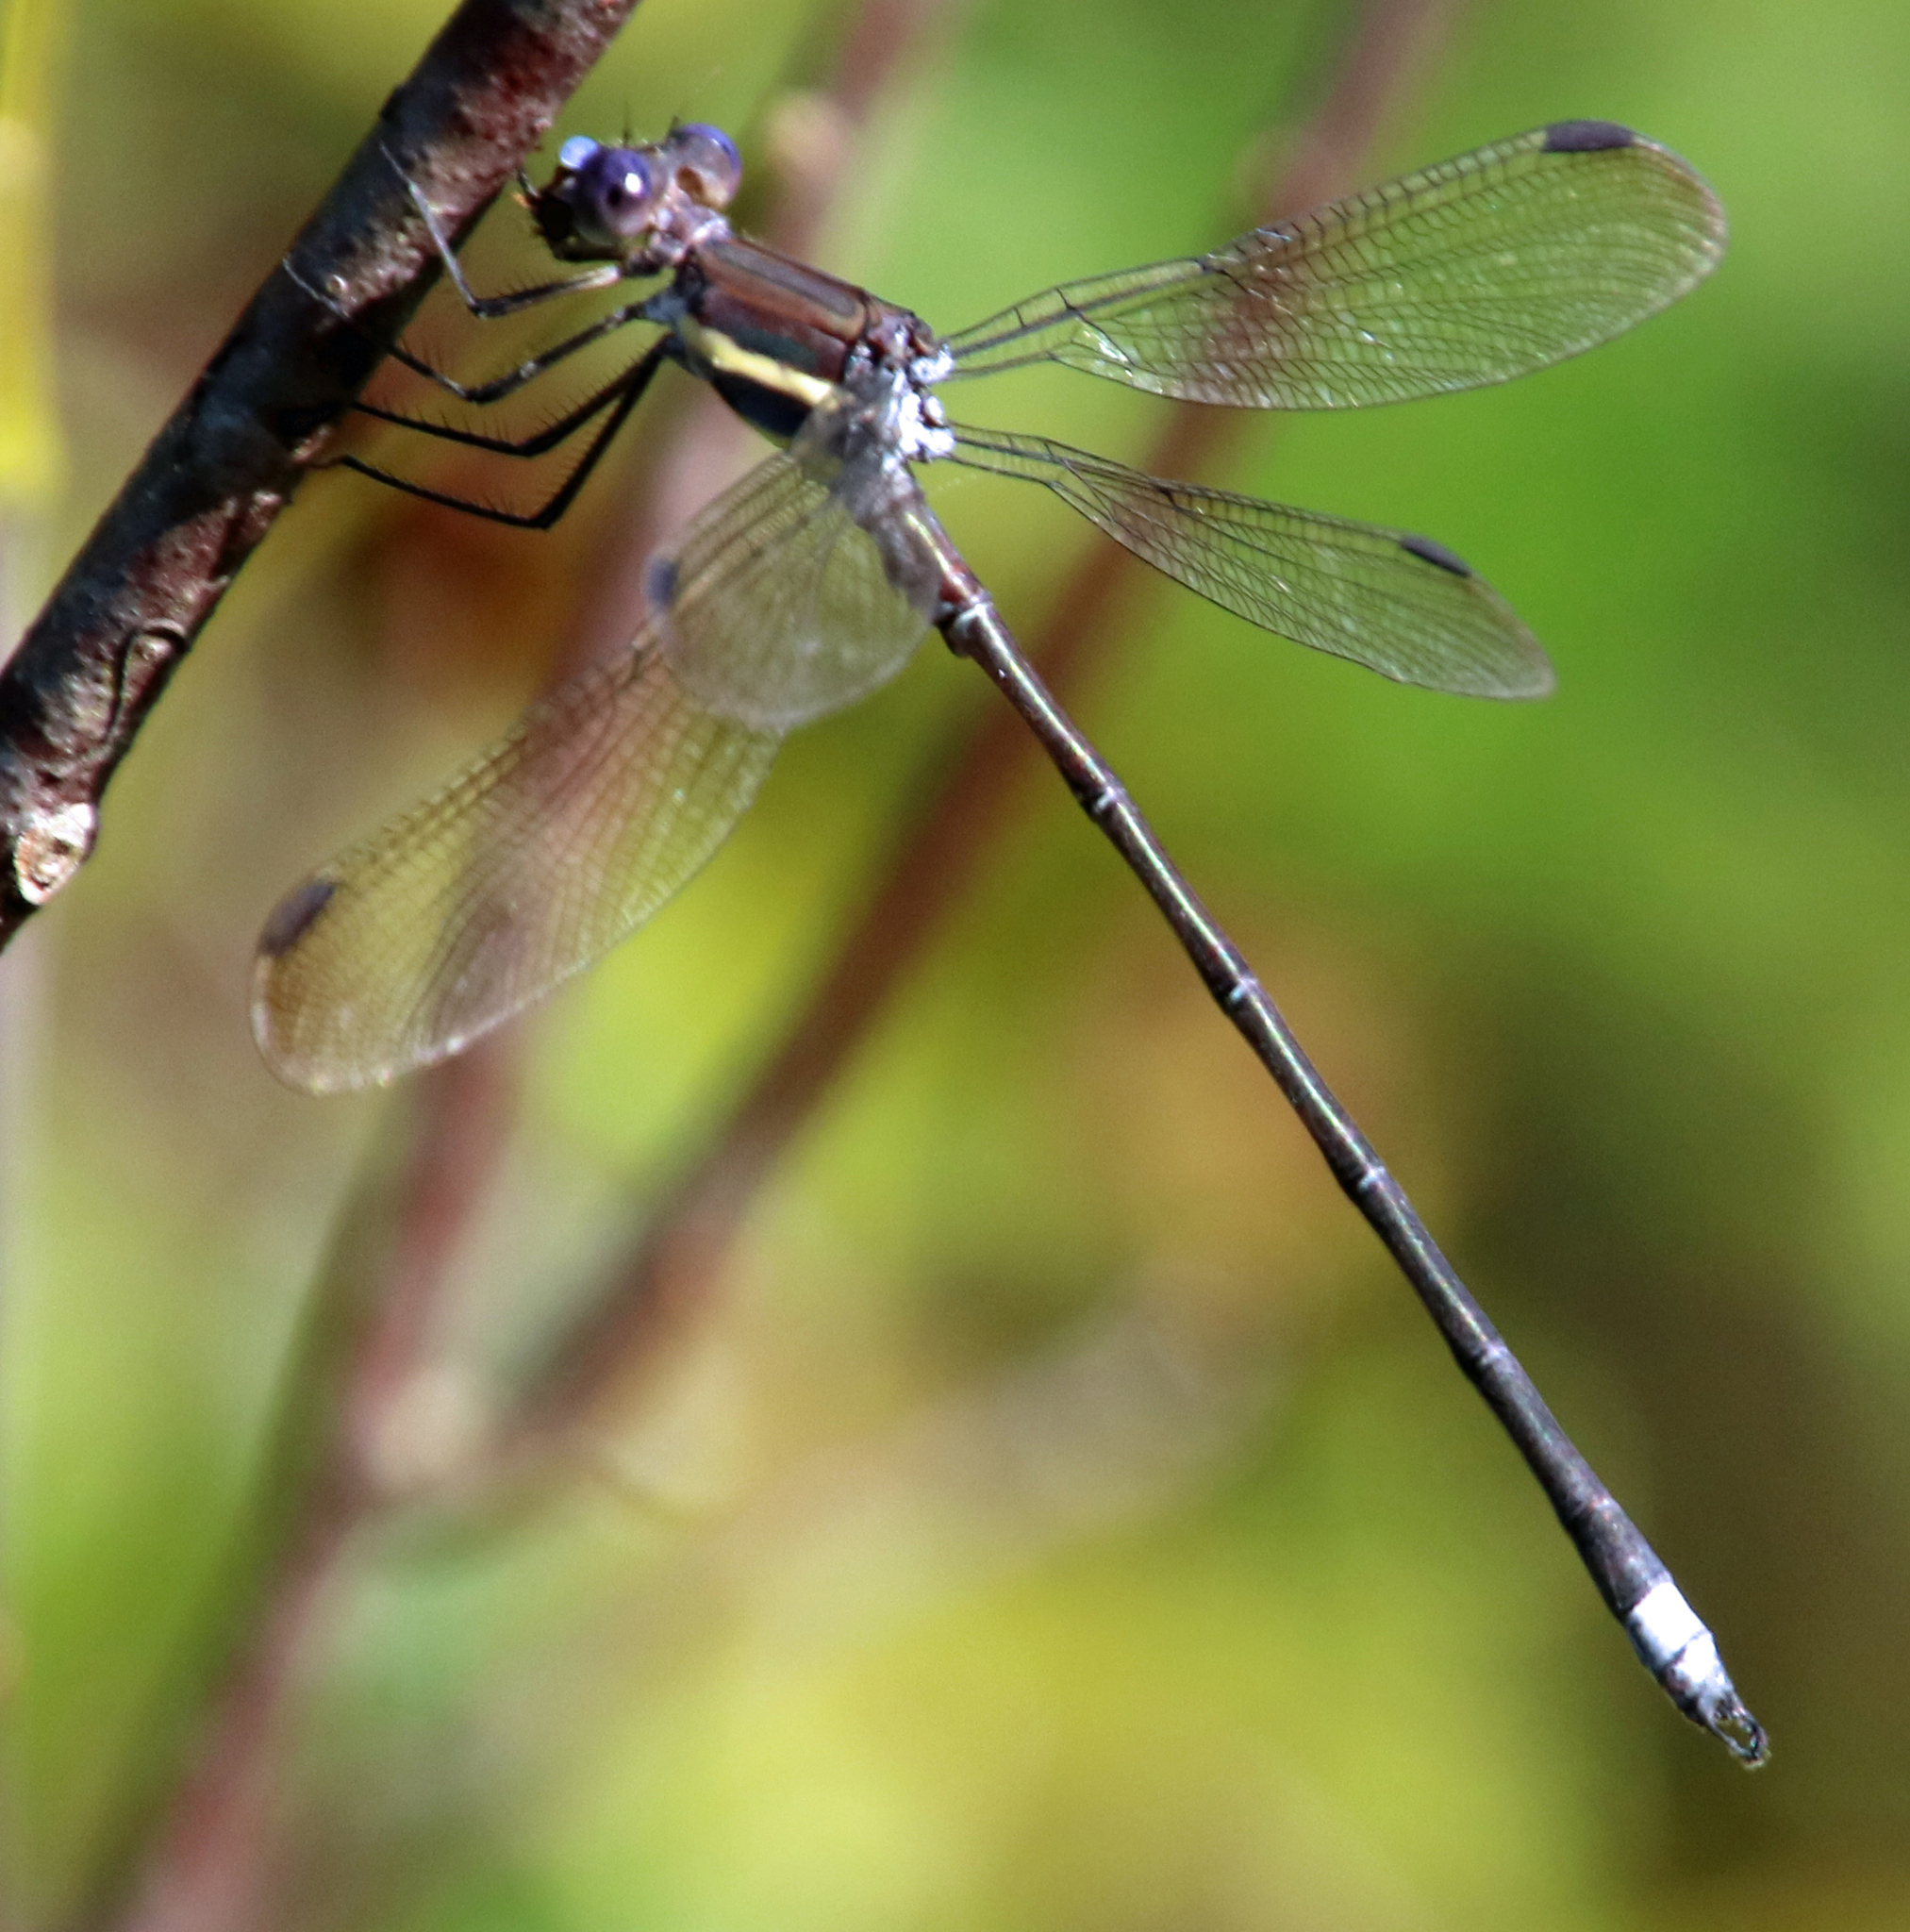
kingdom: Animalia
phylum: Arthropoda
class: Insecta
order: Odonata
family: Lestidae
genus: Archilestes
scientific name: Archilestes grandis
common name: Great spreadwing
